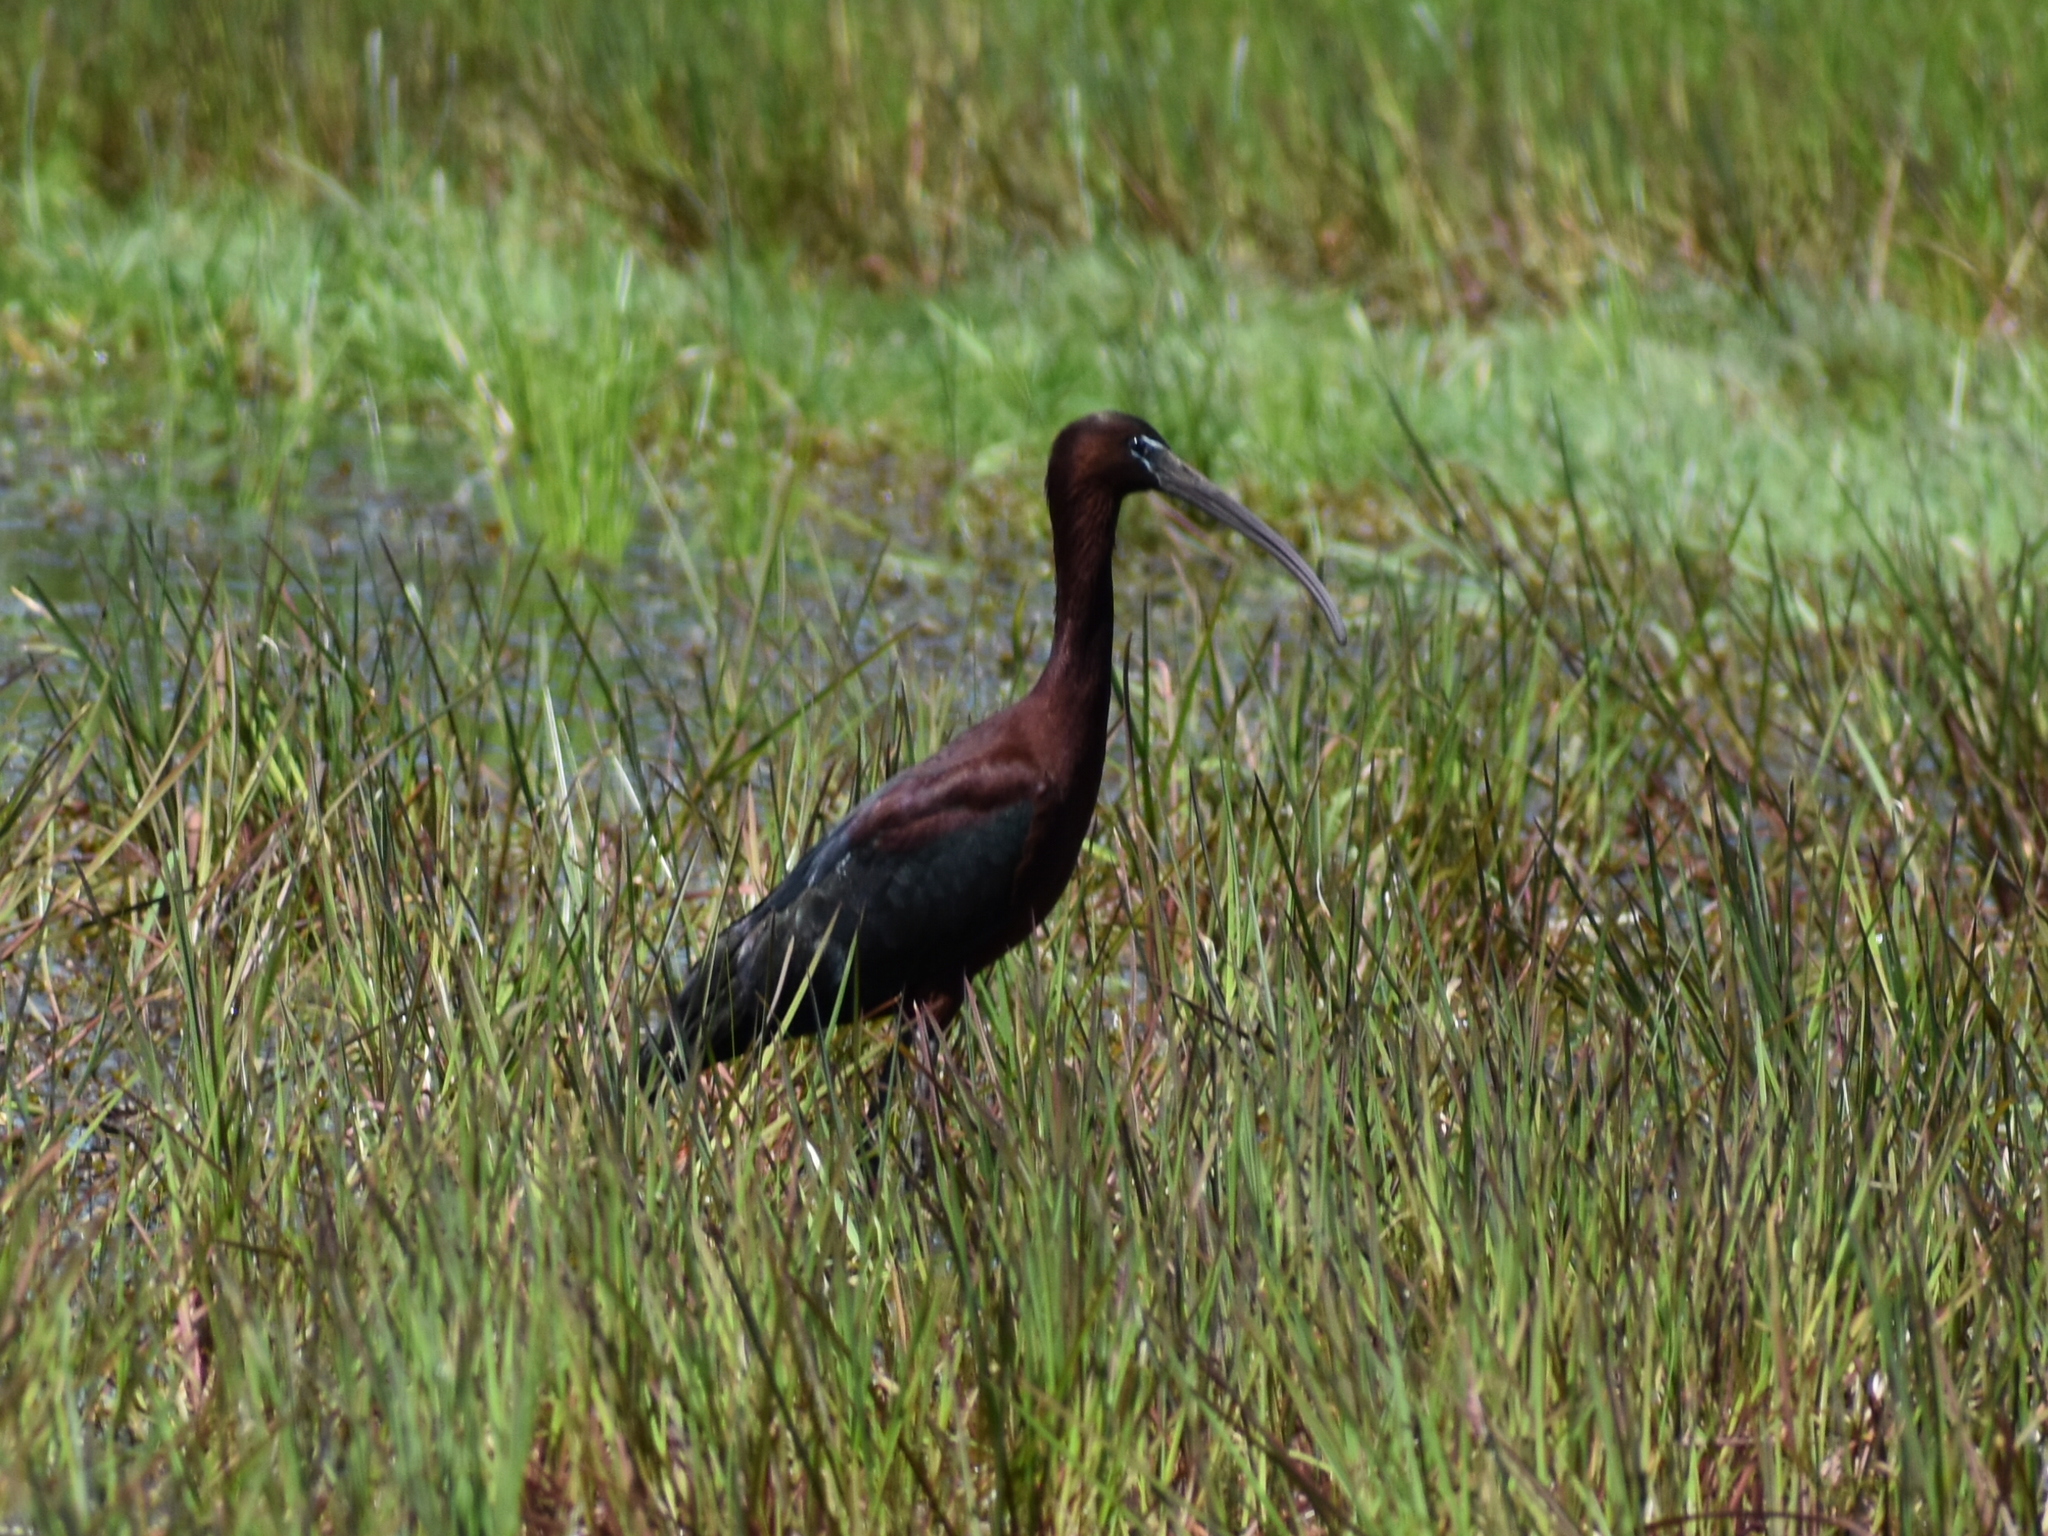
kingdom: Animalia
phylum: Chordata
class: Aves
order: Pelecaniformes
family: Threskiornithidae
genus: Plegadis
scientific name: Plegadis falcinellus
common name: Glossy ibis
